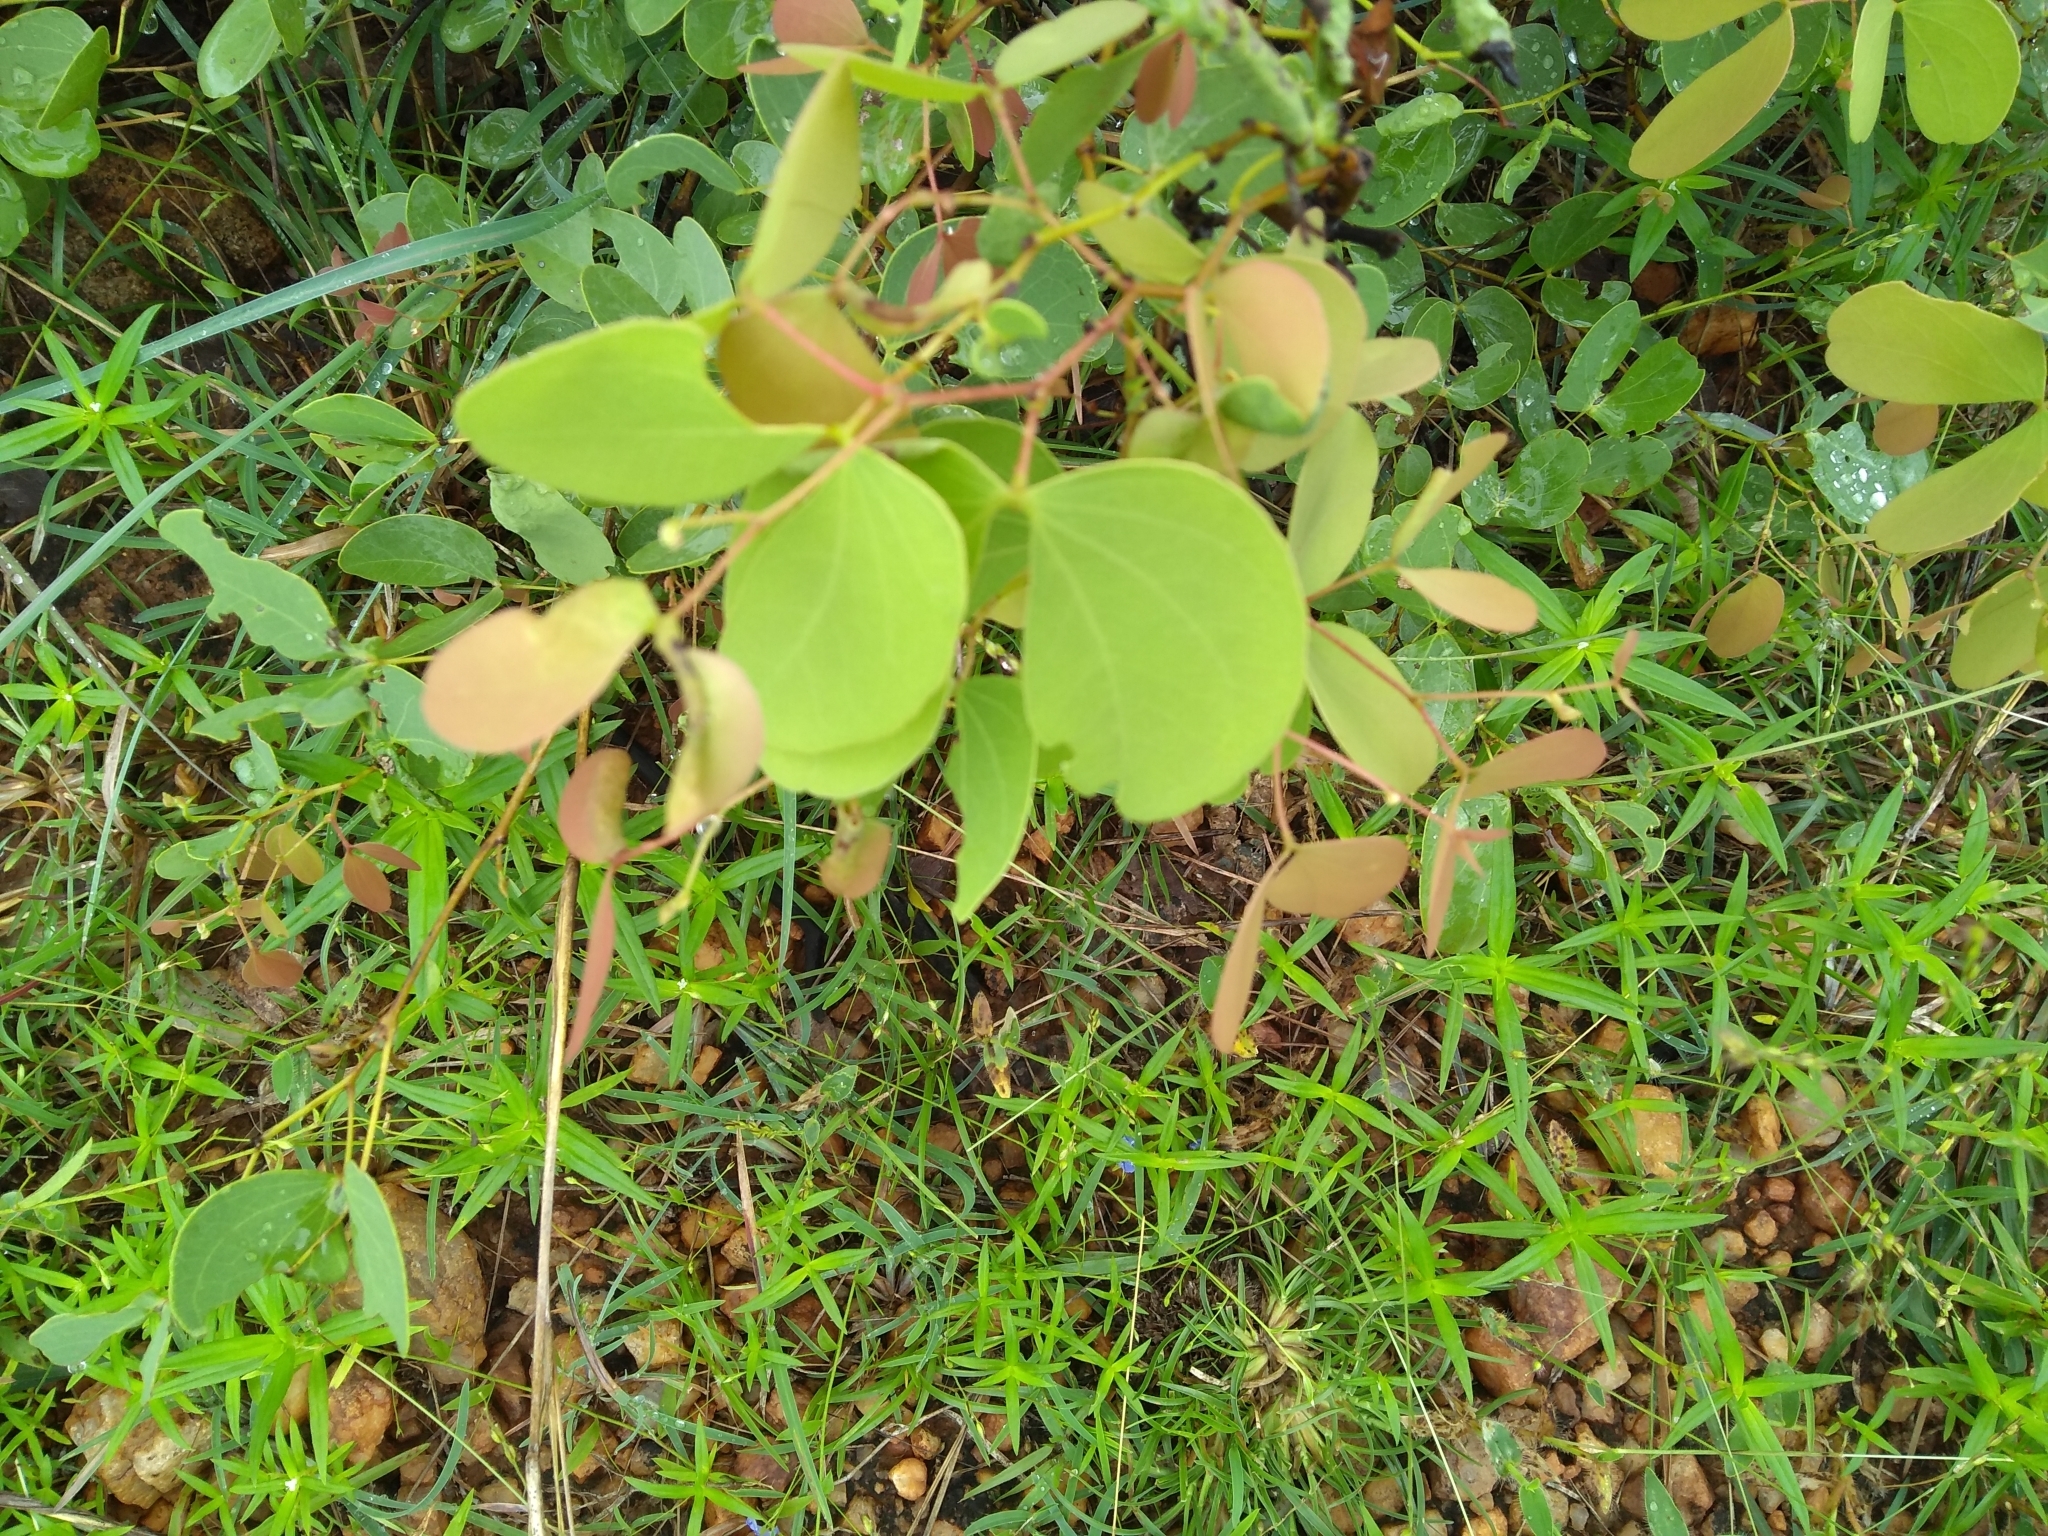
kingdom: Plantae
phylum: Tracheophyta
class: Magnoliopsida
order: Fabales
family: Fabaceae
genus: Hardwickia
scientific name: Hardwickia binata
